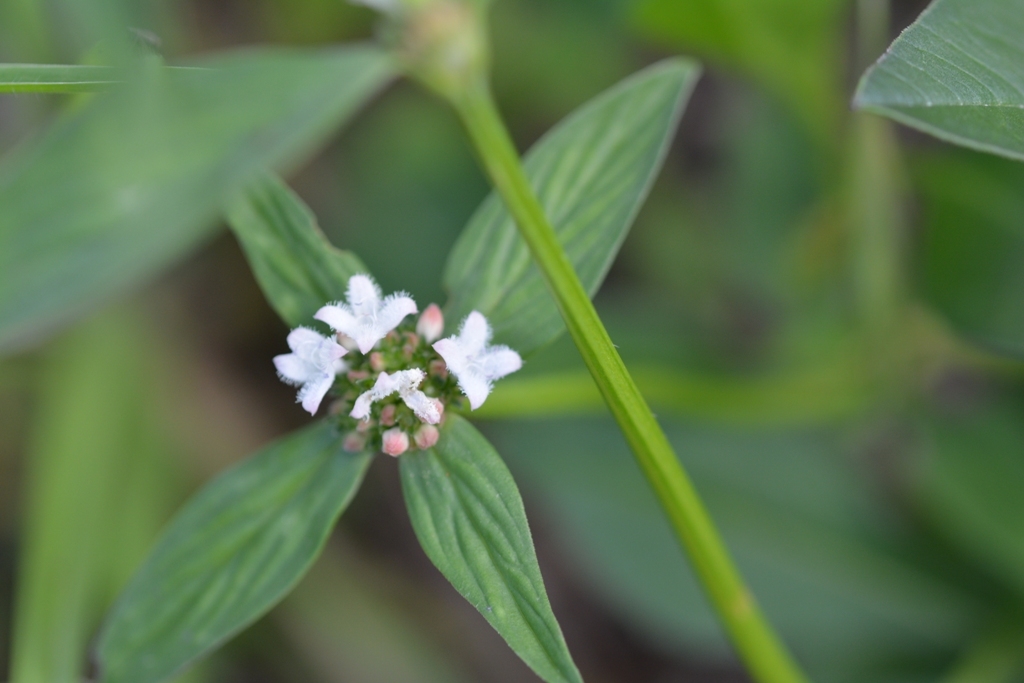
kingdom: Plantae
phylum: Tracheophyta
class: Magnoliopsida
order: Gentianales
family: Rubiaceae
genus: Spermacoce
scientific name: Spermacoce remota
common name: Woodland false buttonweed
